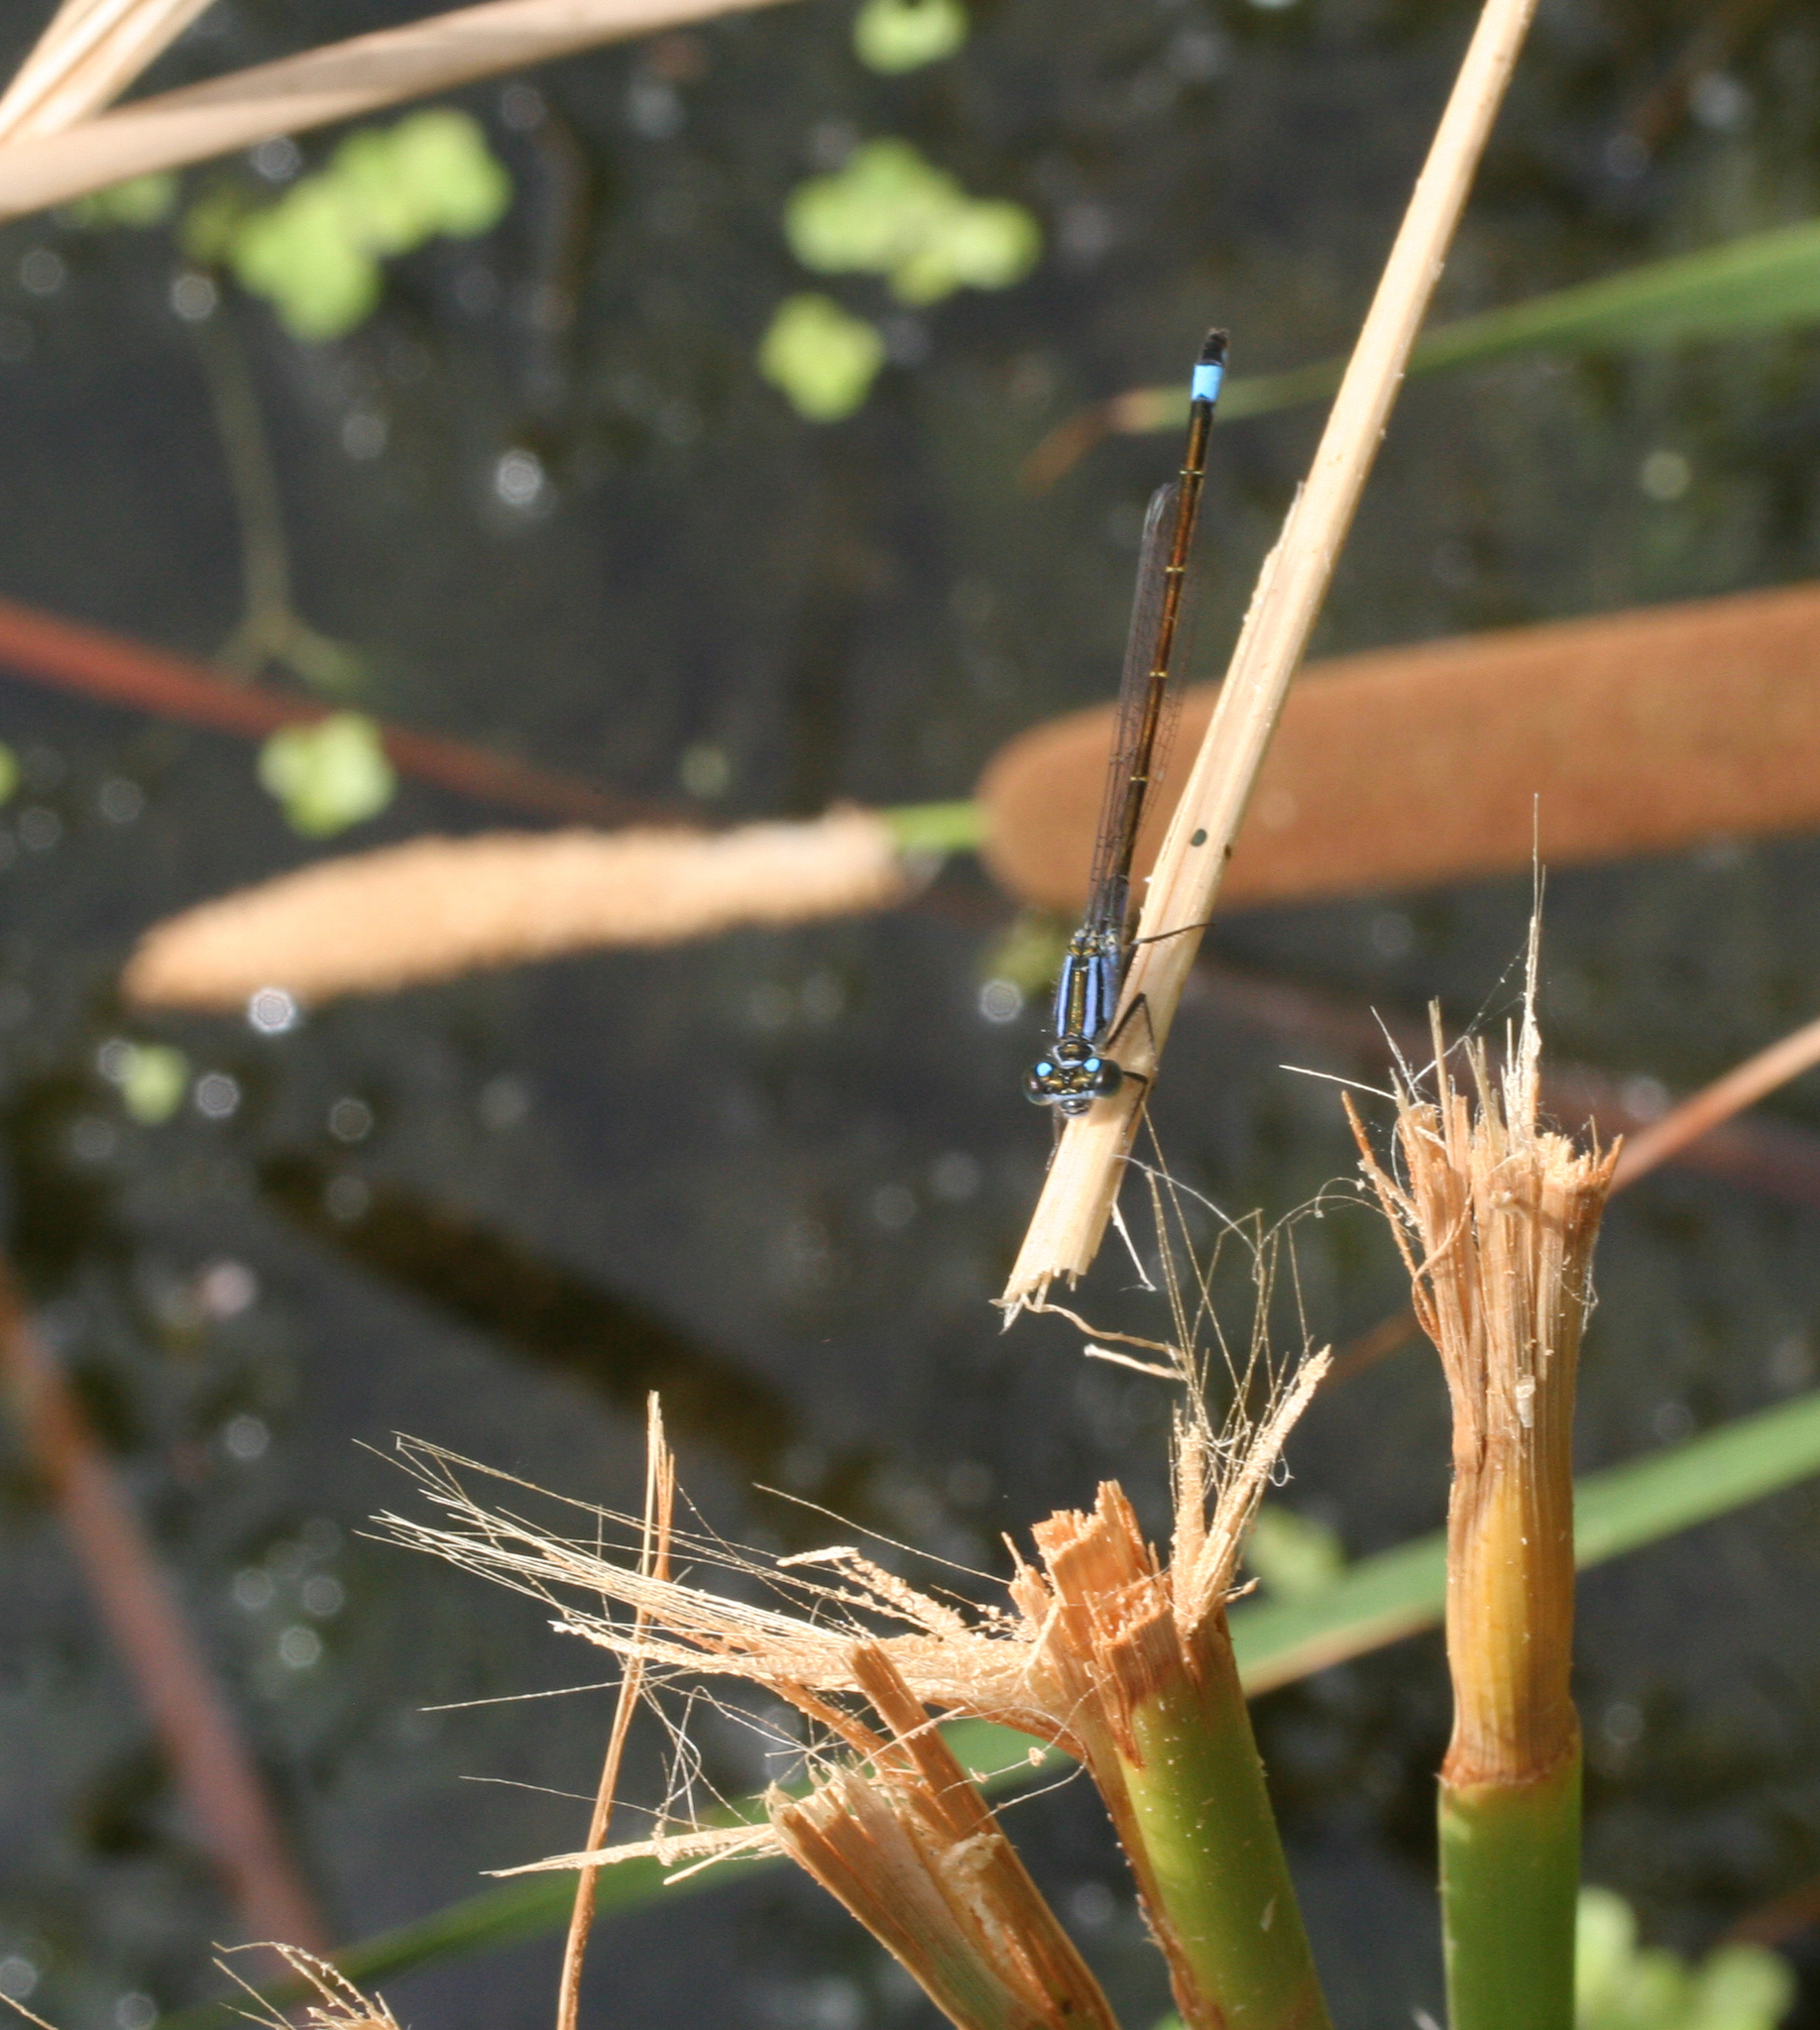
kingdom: Animalia
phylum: Arthropoda
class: Insecta
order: Odonata
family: Coenagrionidae
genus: Ischnura
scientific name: Ischnura elegans
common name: Blue-tailed damselfly
